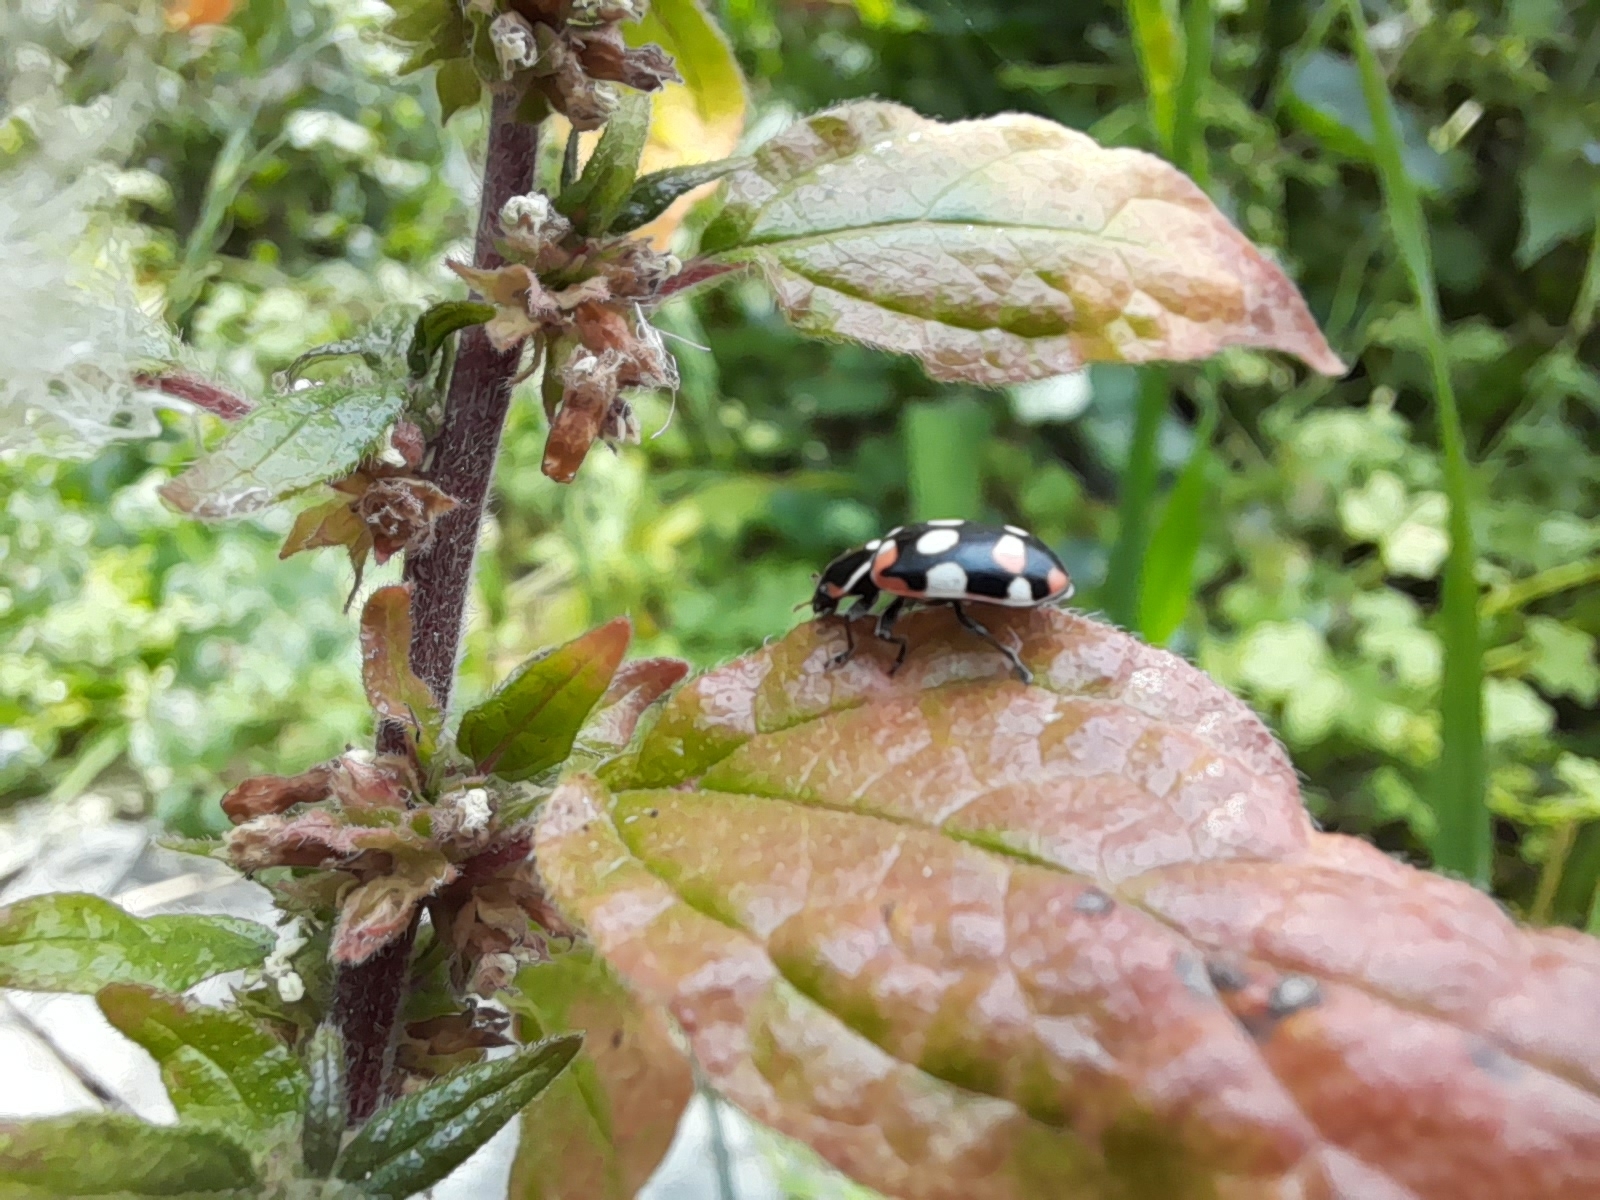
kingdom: Animalia
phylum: Arthropoda
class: Insecta
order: Coleoptera
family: Coccinellidae
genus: Eriopis
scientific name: Eriopis connexa
